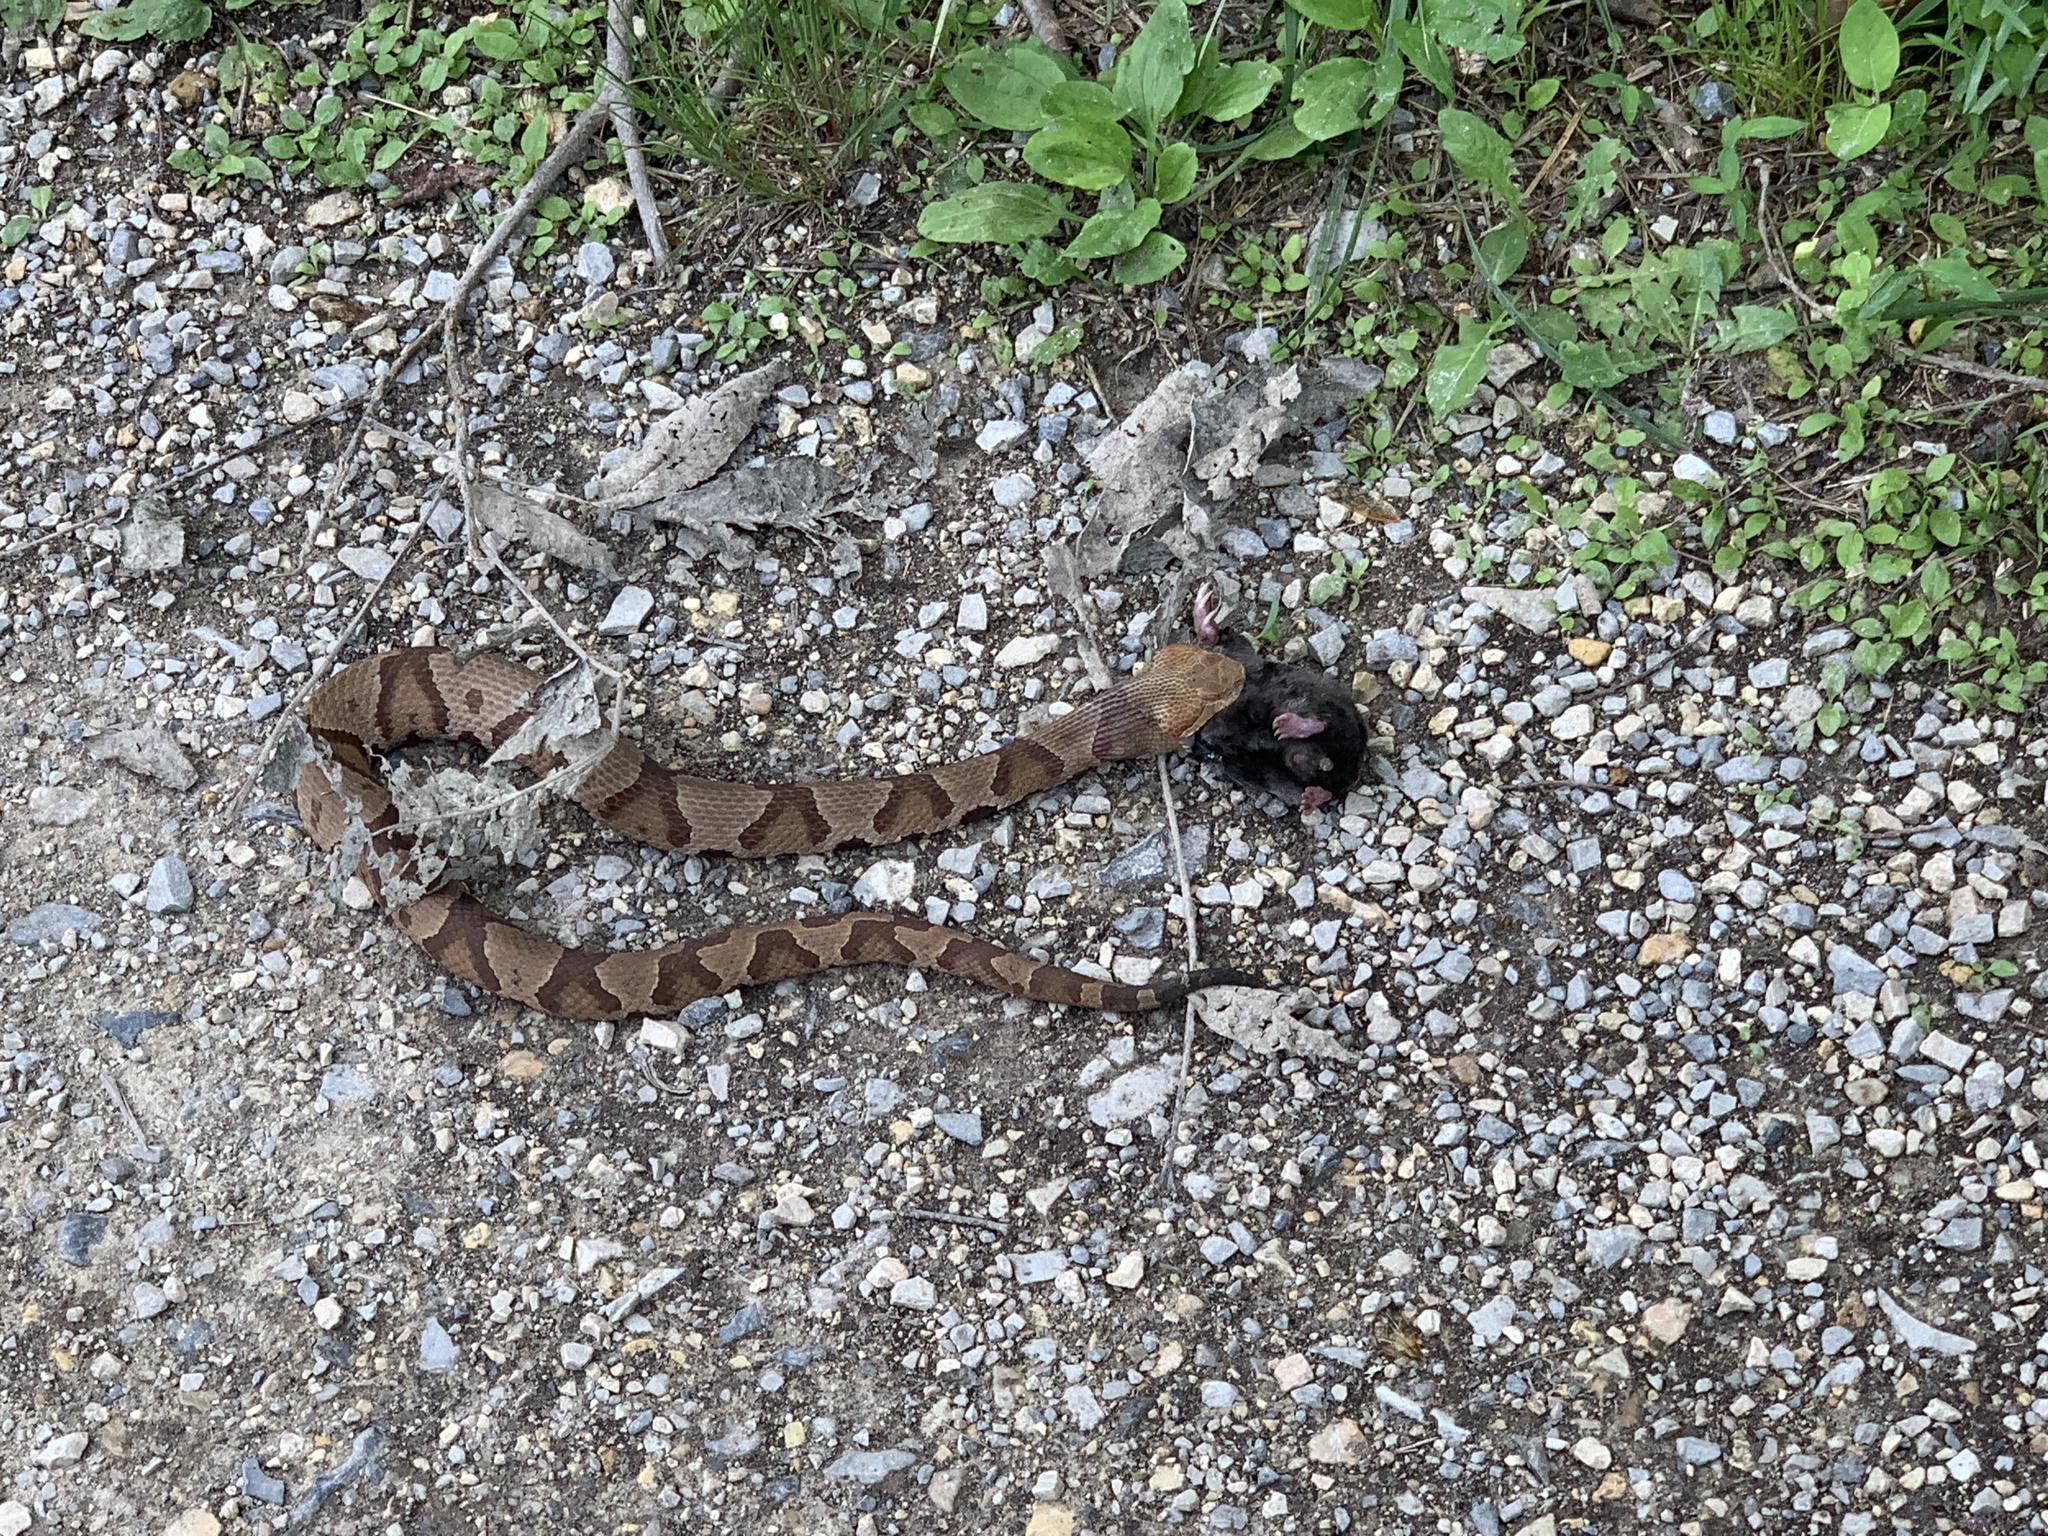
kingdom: Animalia
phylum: Chordata
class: Squamata
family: Viperidae
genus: Agkistrodon
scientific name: Agkistrodon contortrix
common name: Northern copperhead
